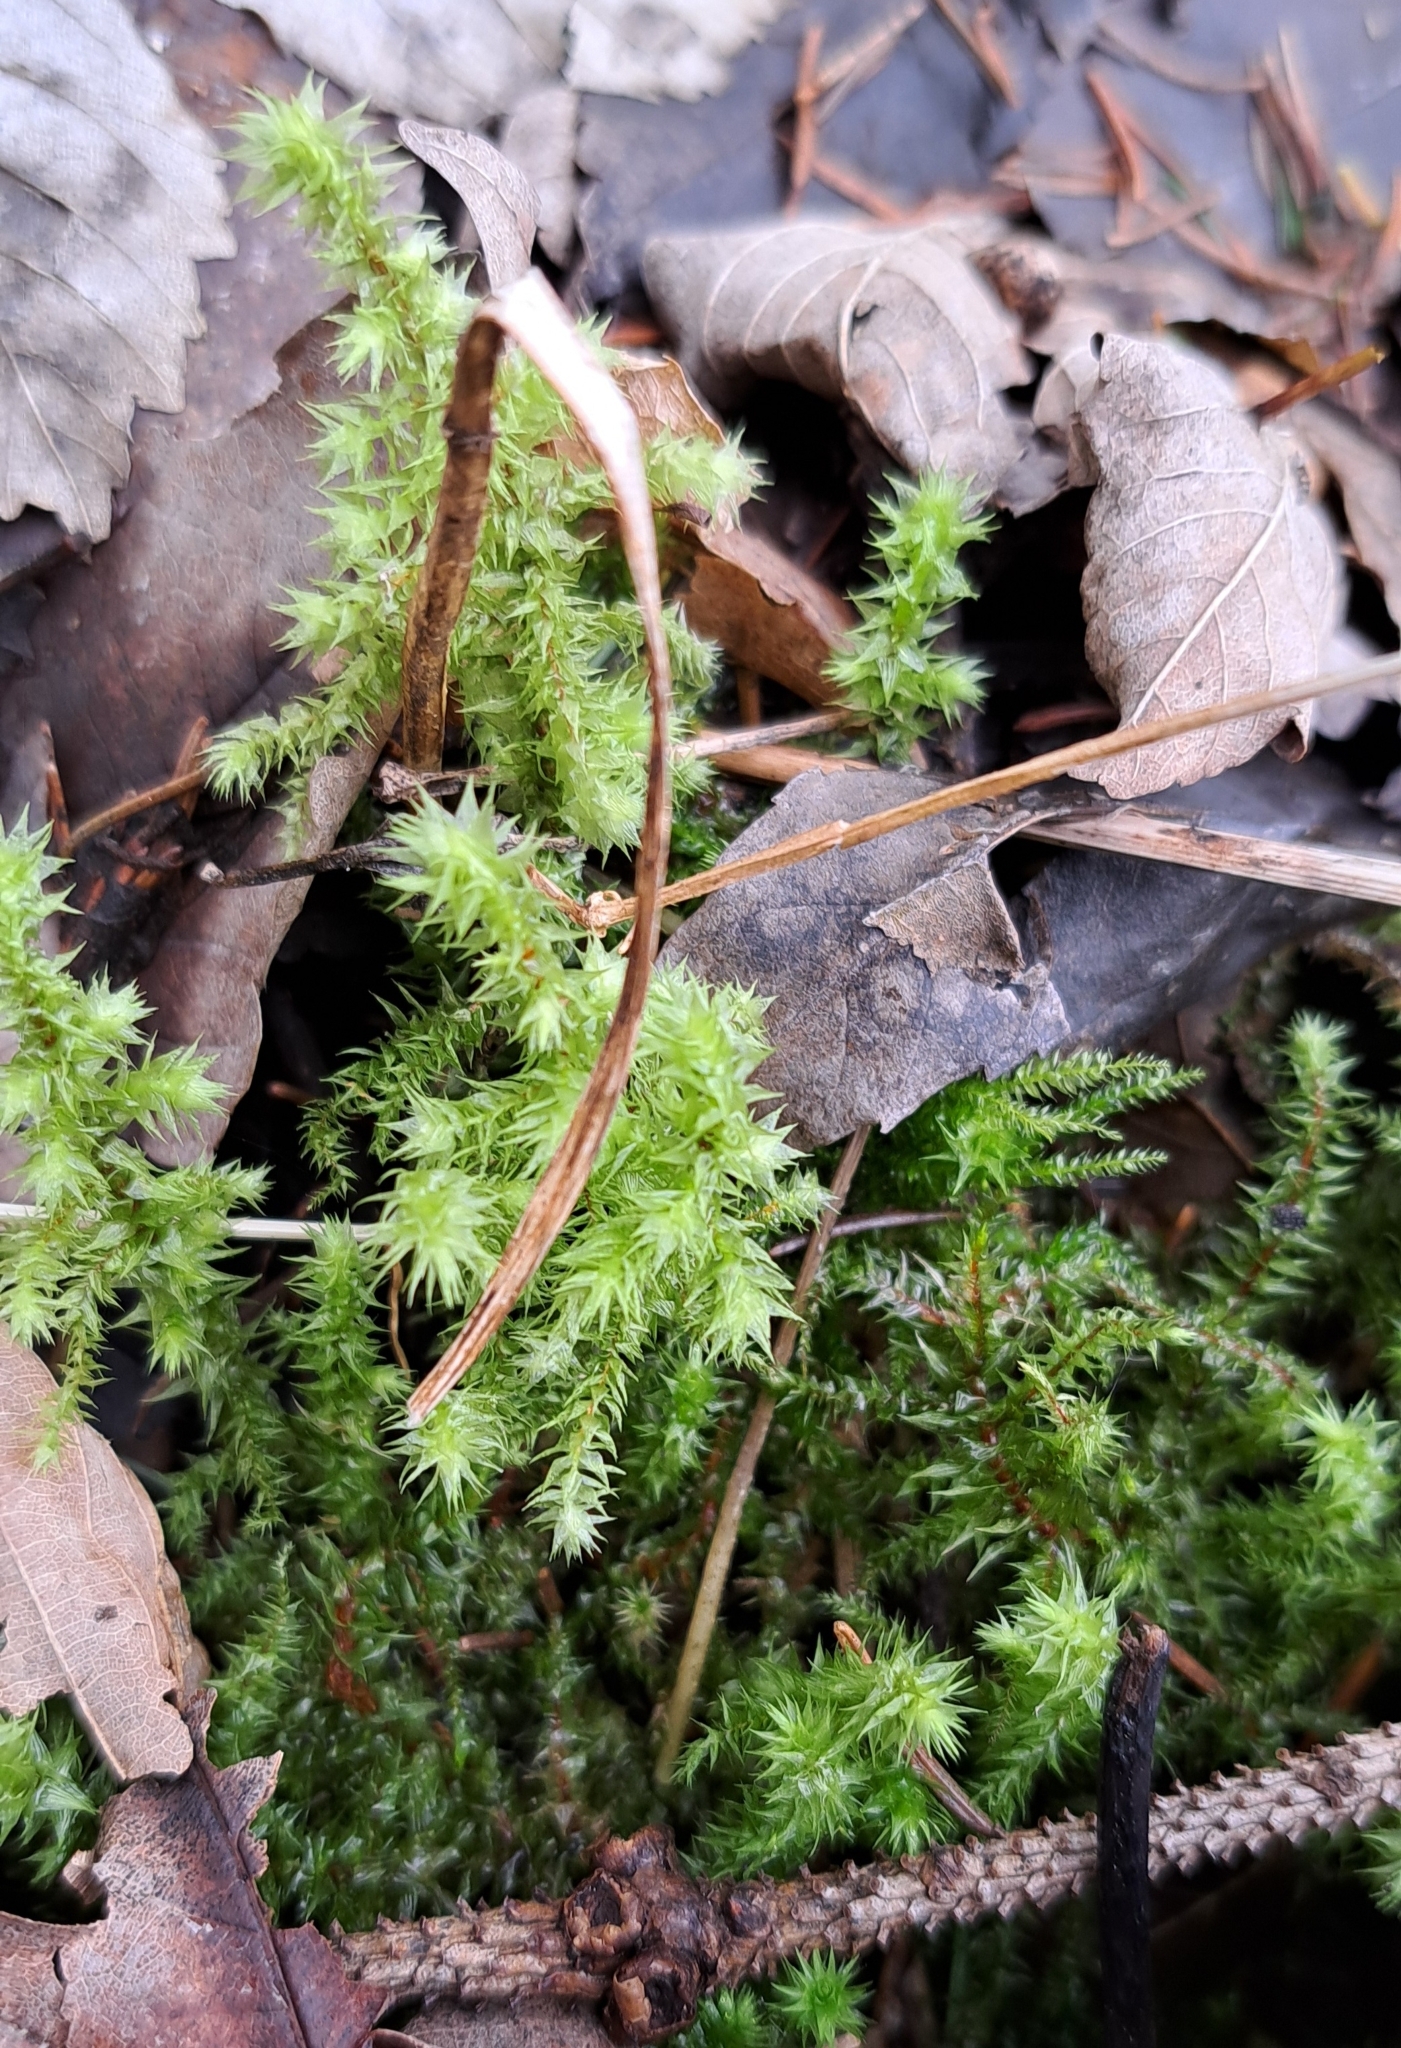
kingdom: Plantae
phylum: Bryophyta
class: Bryopsida
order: Hypnales
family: Hylocomiaceae
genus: Hylocomiadelphus
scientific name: Hylocomiadelphus triquetrus
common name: Rough goose neck moss
